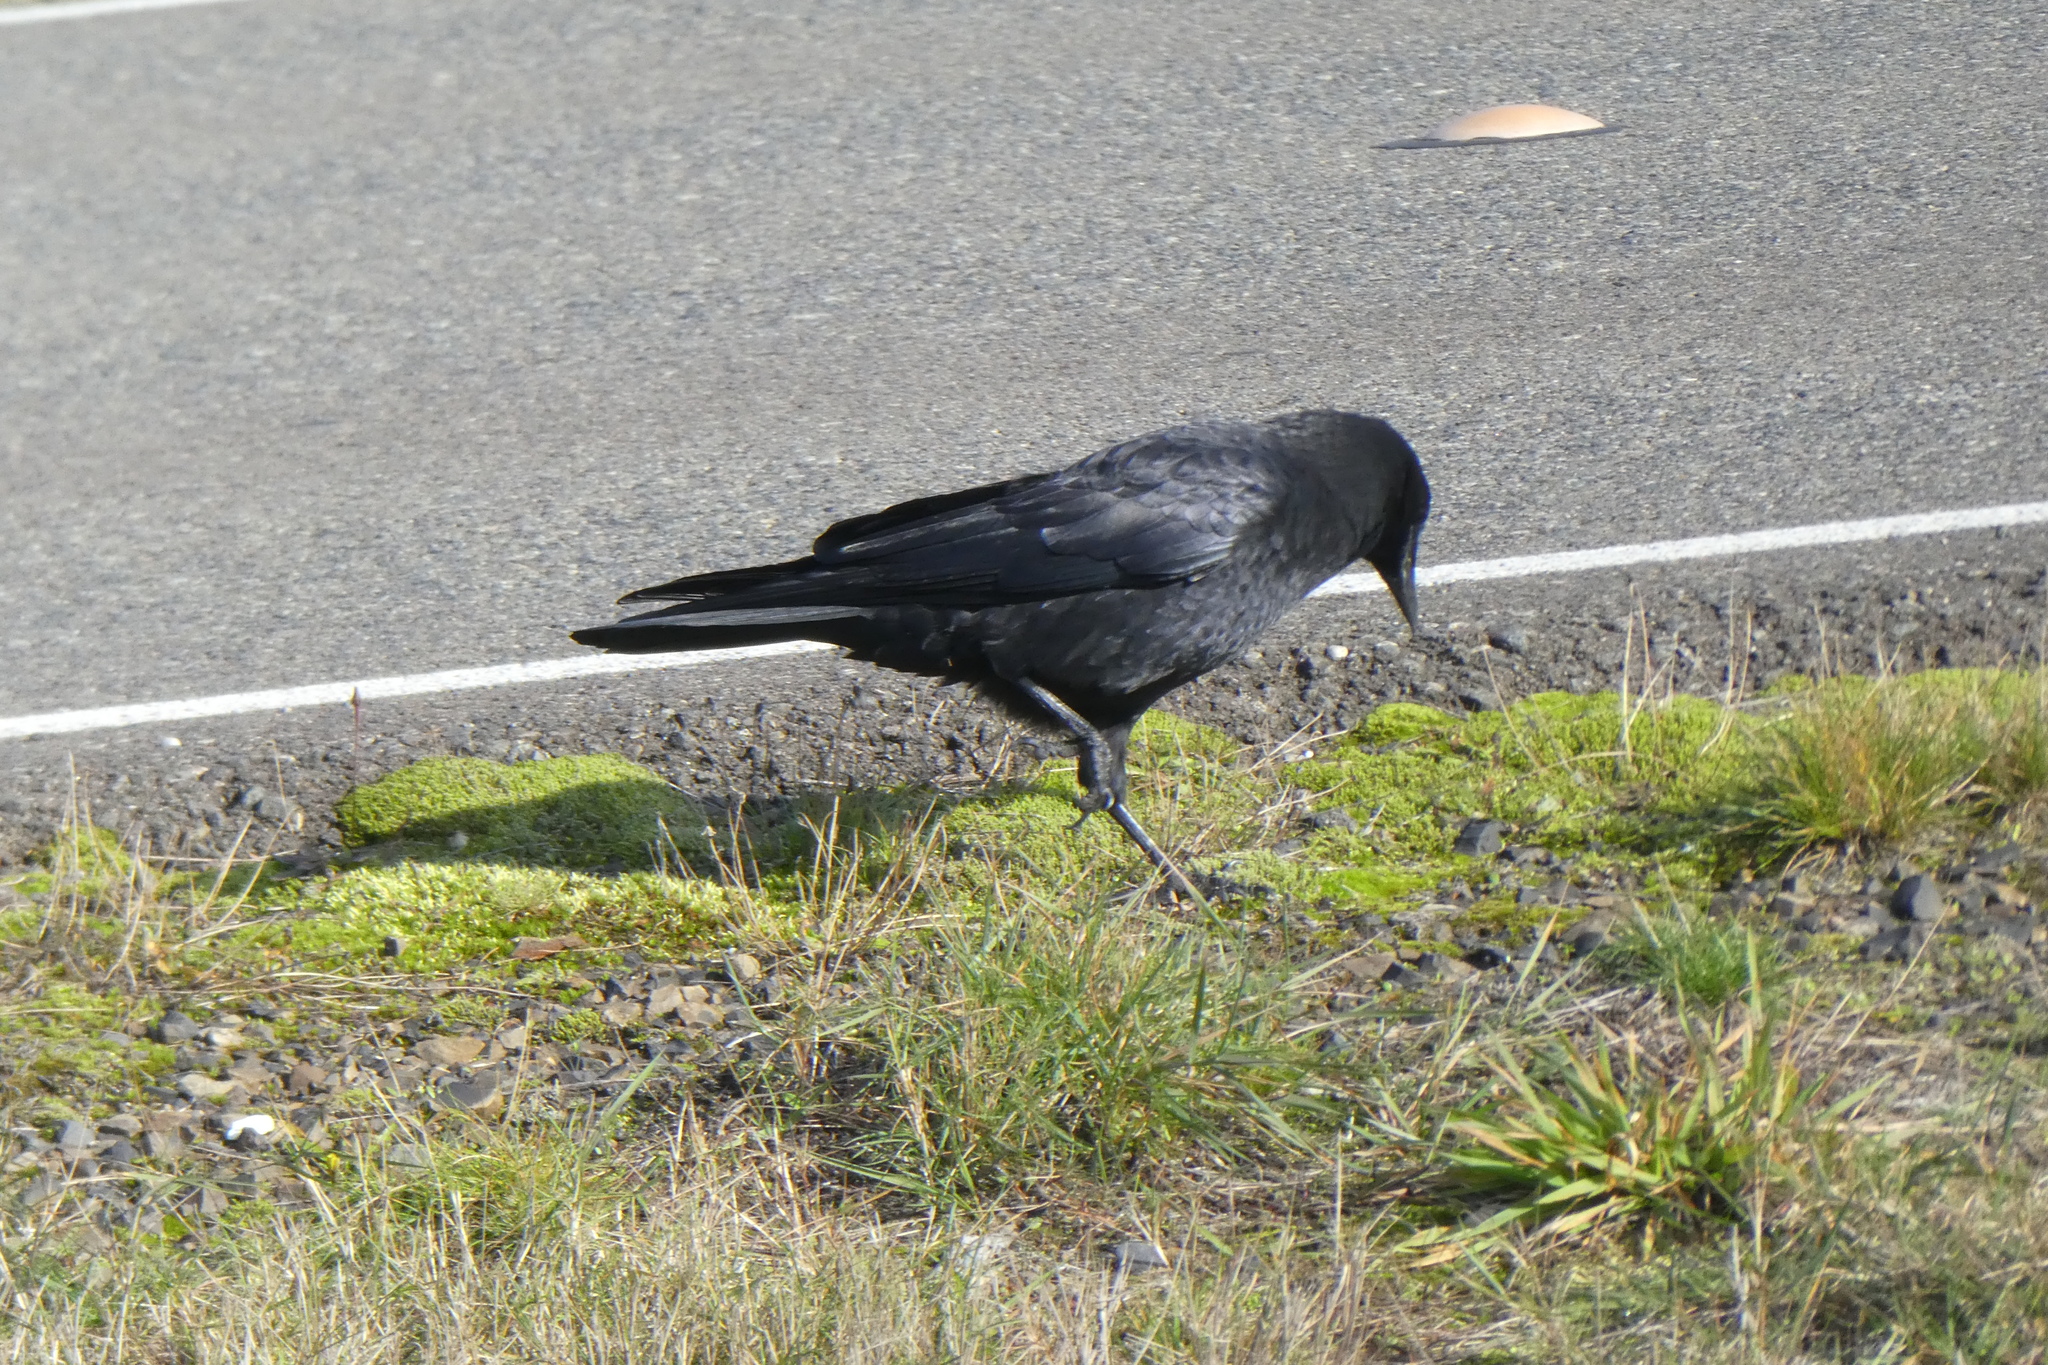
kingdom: Animalia
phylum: Chordata
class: Aves
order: Passeriformes
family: Corvidae
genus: Corvus
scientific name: Corvus brachyrhynchos
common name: American crow
